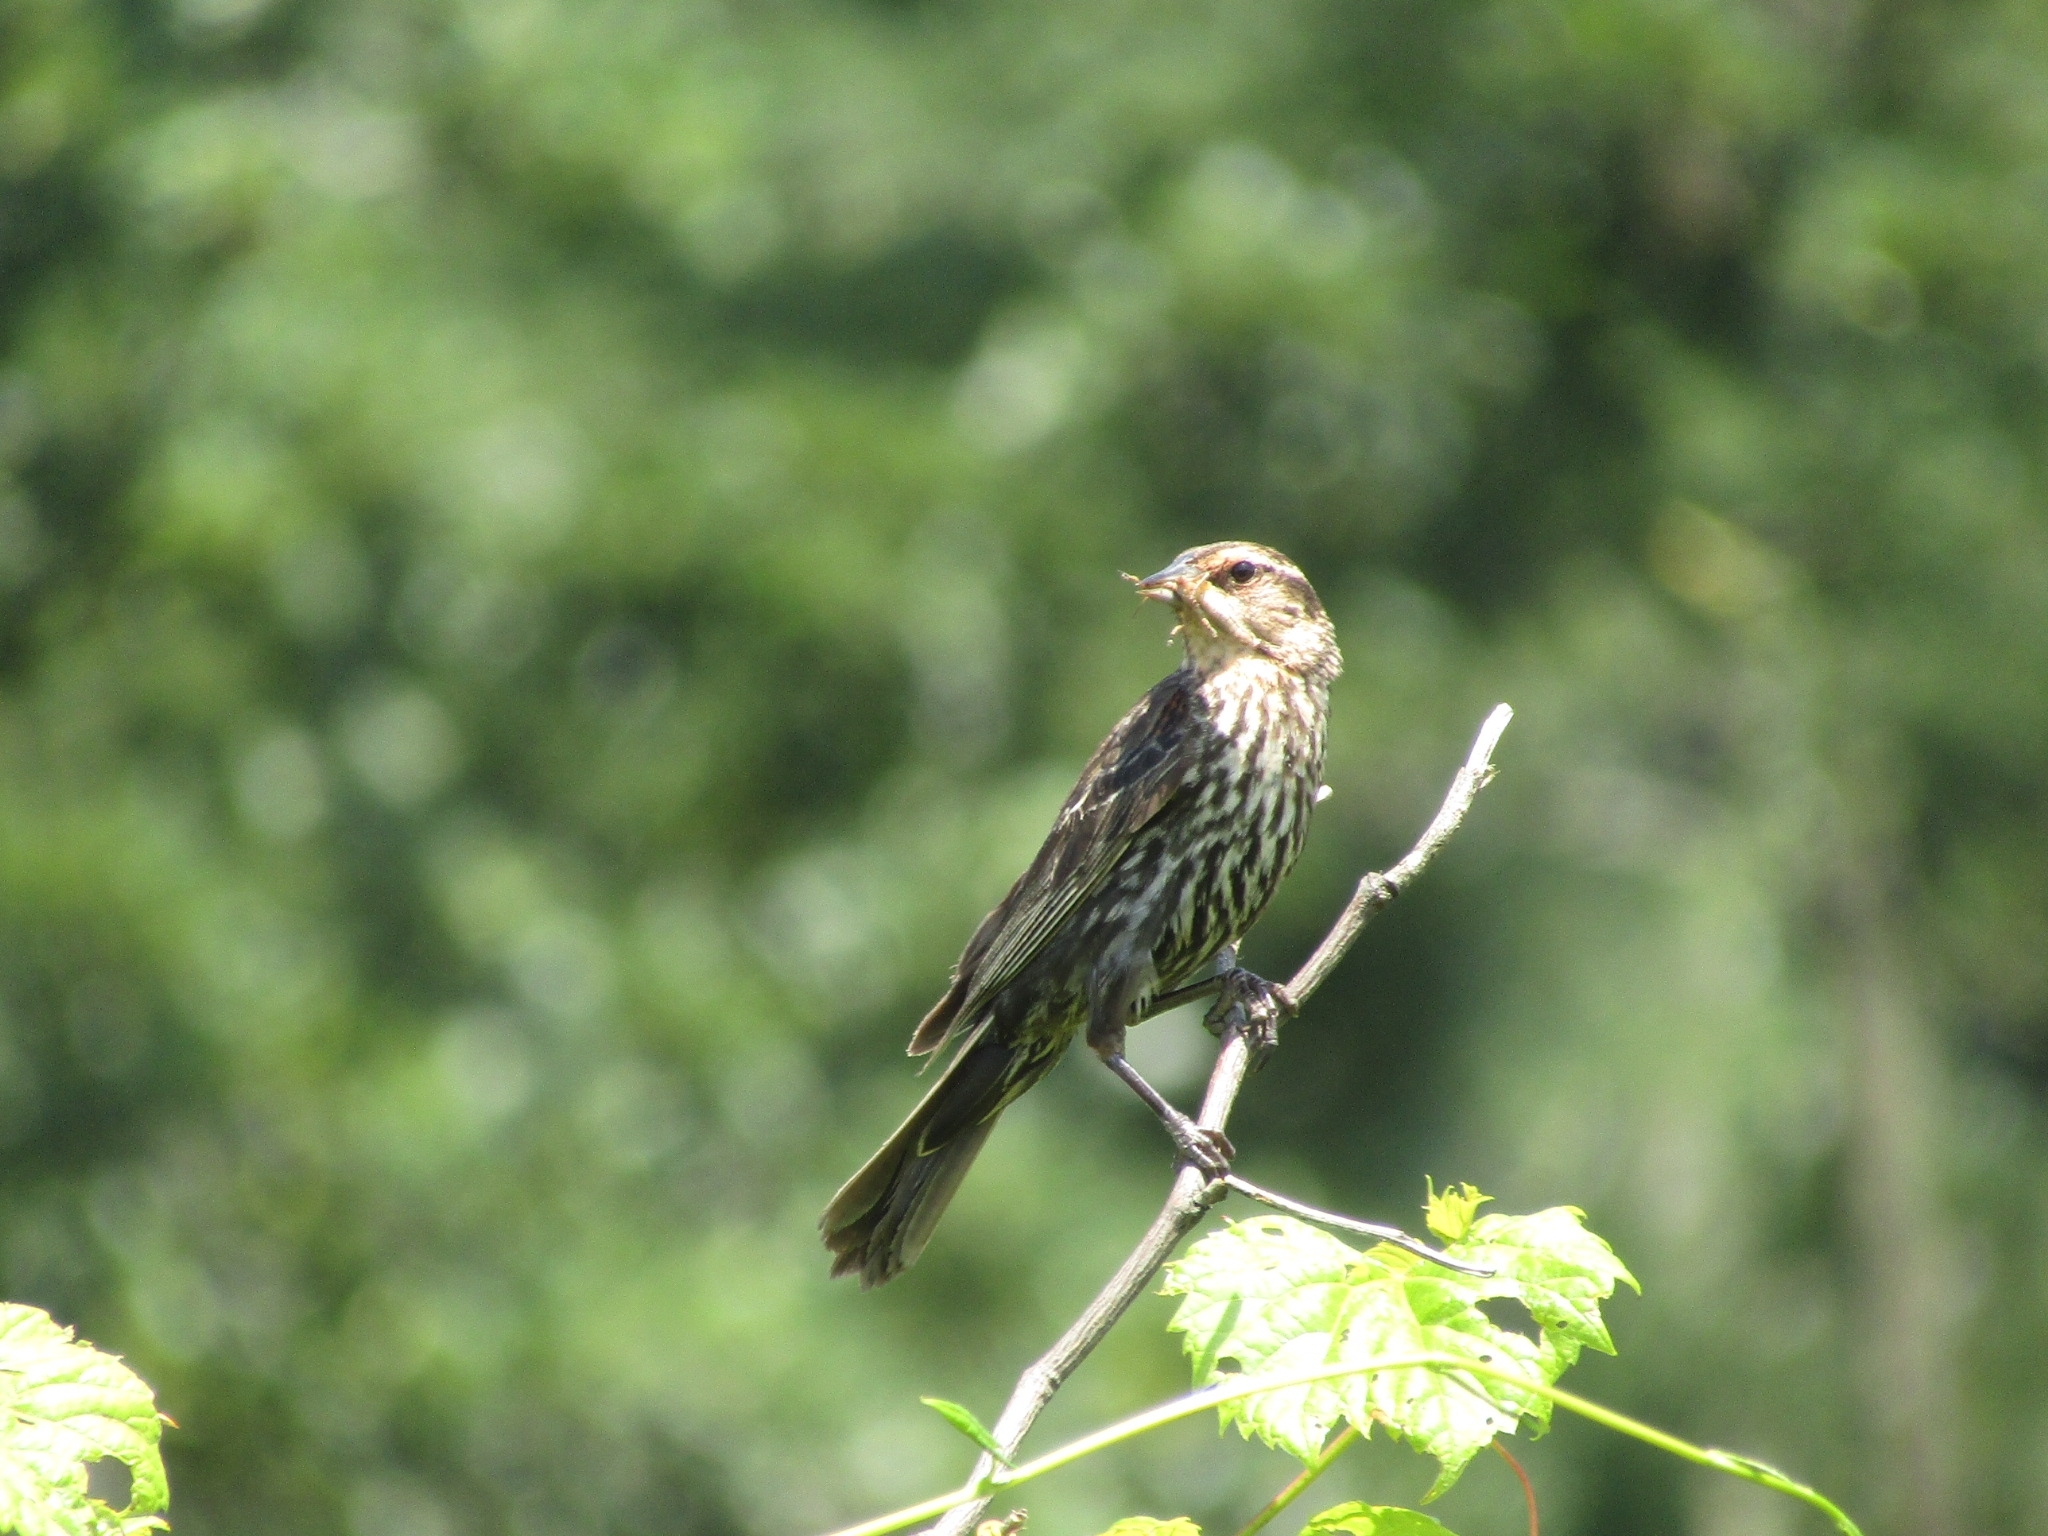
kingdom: Animalia
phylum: Chordata
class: Aves
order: Passeriformes
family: Icteridae
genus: Agelaius
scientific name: Agelaius phoeniceus
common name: Red-winged blackbird
